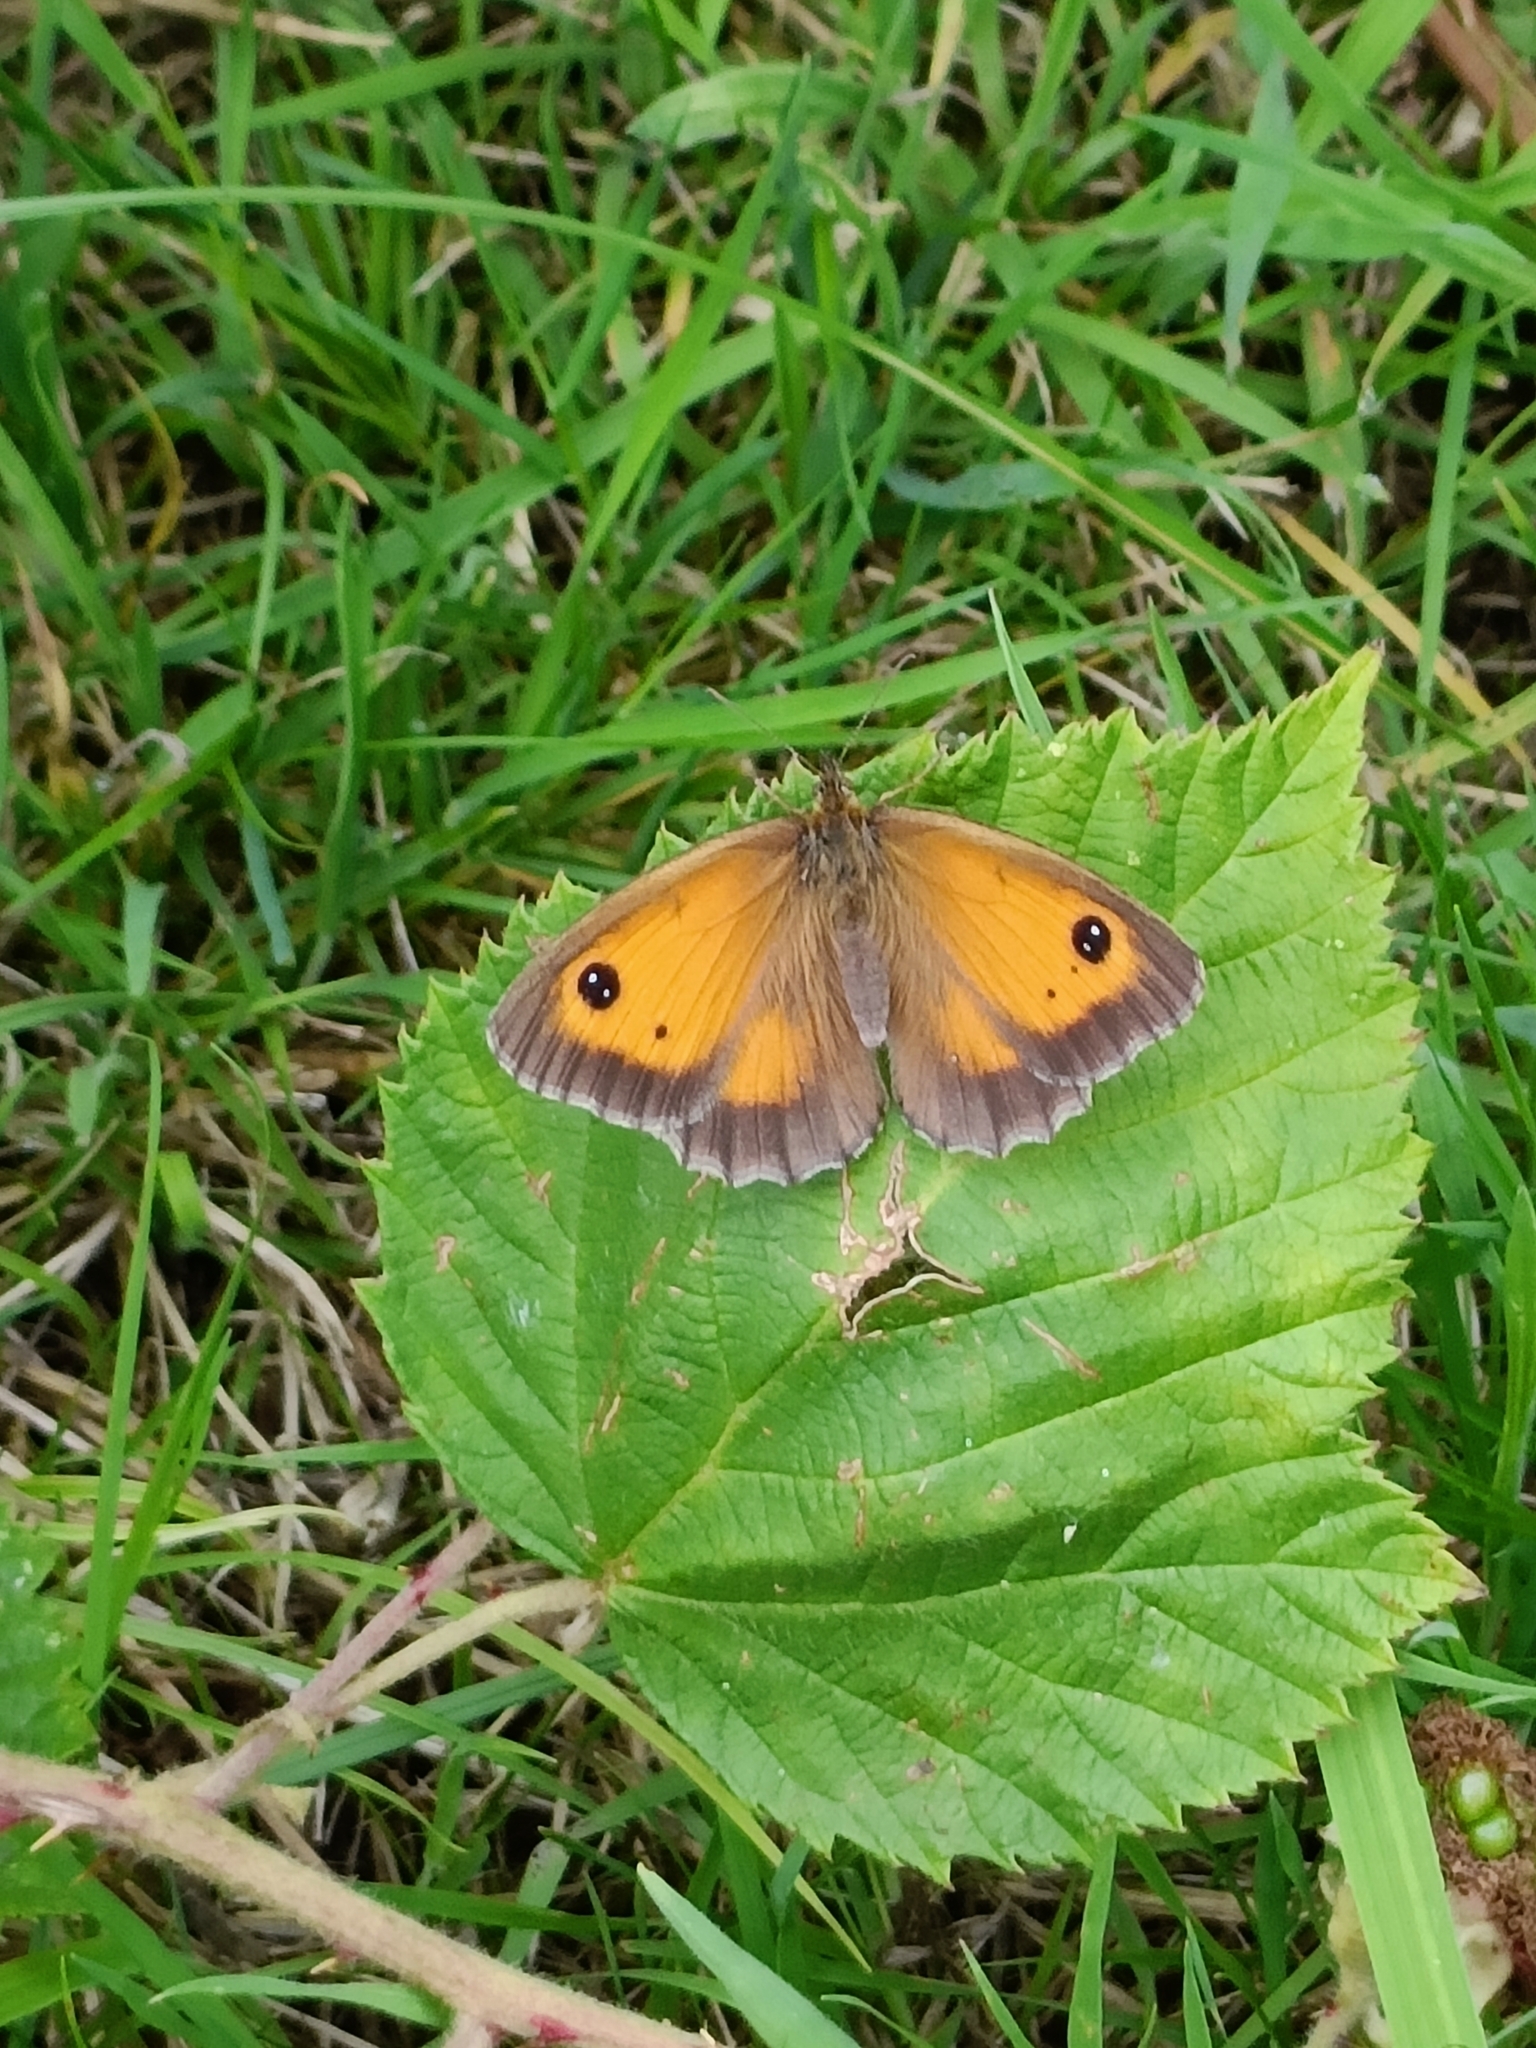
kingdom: Animalia
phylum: Arthropoda
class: Insecta
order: Lepidoptera
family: Nymphalidae
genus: Pyronia
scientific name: Pyronia tithonus
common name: Gatekeeper
